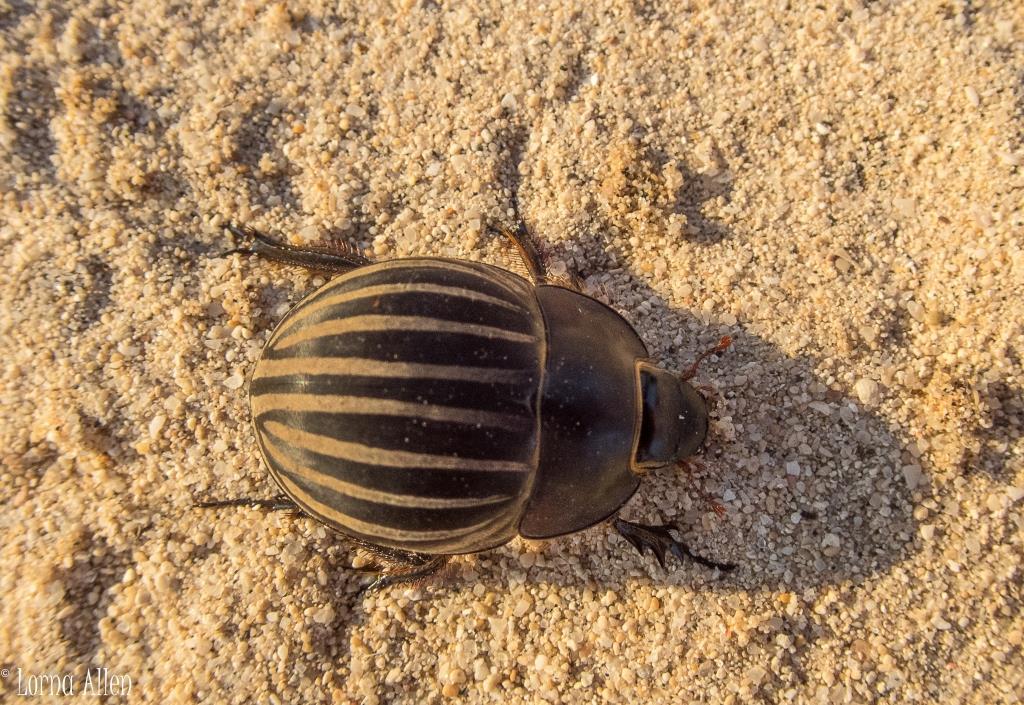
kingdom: Animalia
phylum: Arthropoda
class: Insecta
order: Coleoptera
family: Scarabaeidae
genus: Hexodon
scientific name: Hexodon montandoni
